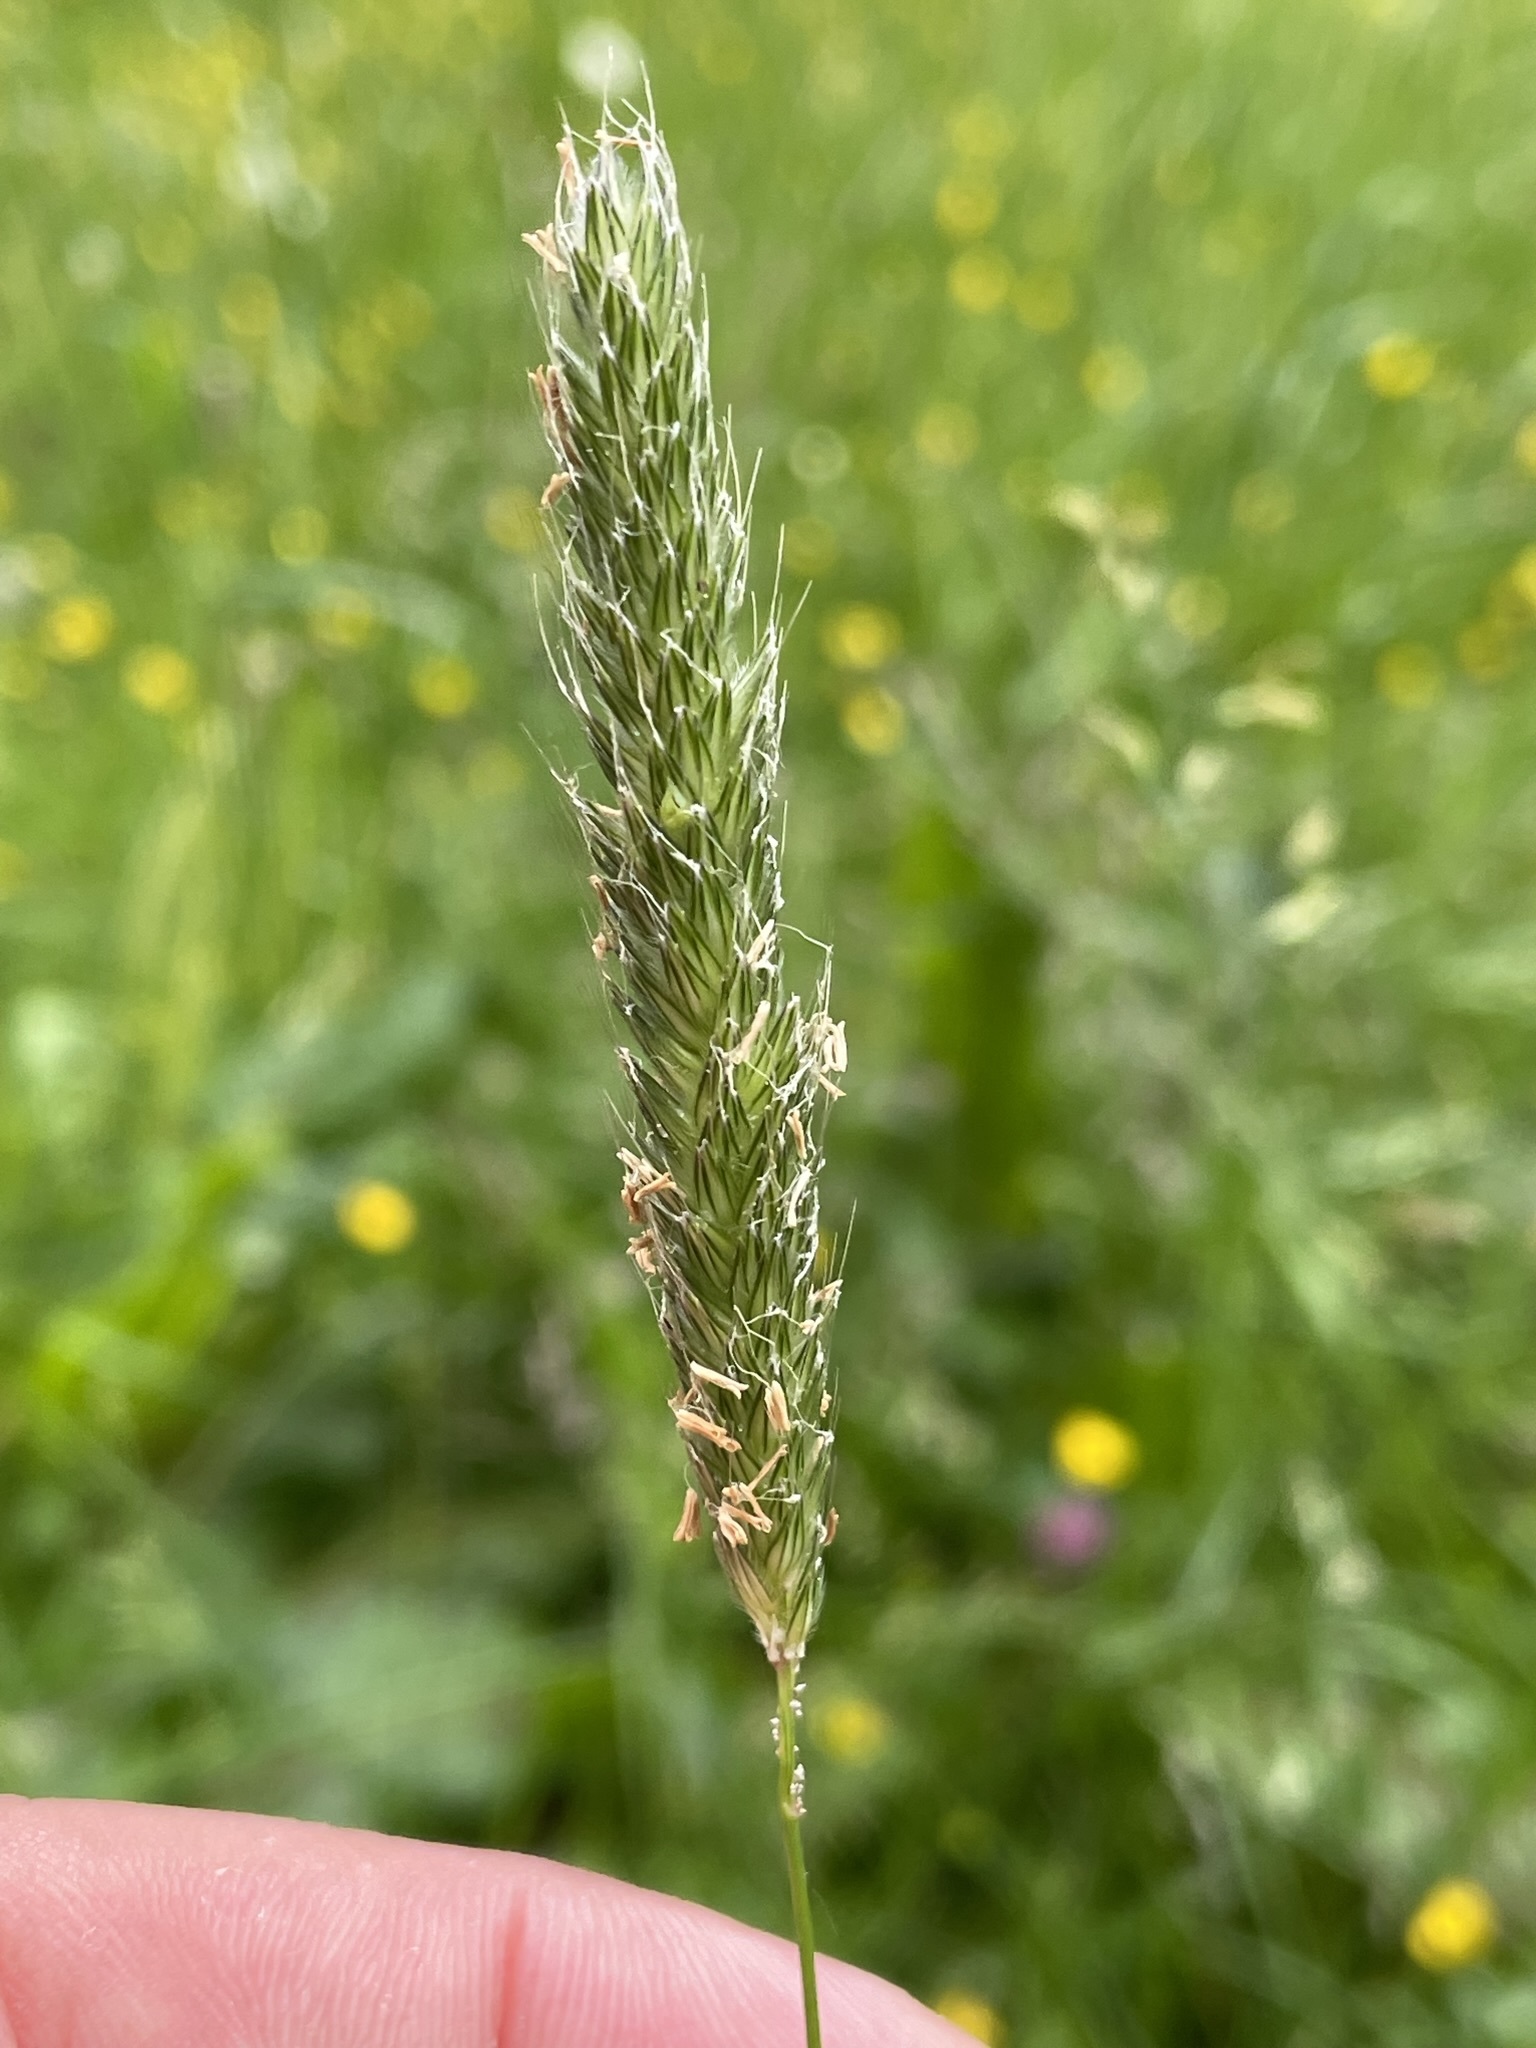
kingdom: Plantae
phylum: Tracheophyta
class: Liliopsida
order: Poales
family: Poaceae
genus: Alopecurus
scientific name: Alopecurus pratensis
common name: Meadow foxtail
